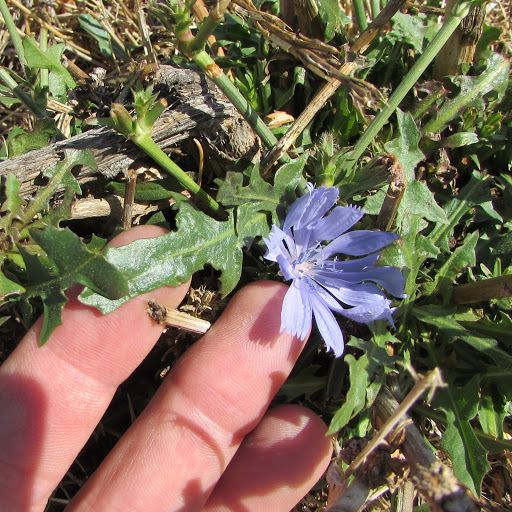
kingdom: Plantae
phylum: Tracheophyta
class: Magnoliopsida
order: Asterales
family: Asteraceae
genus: Cichorium
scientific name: Cichorium intybus
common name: Chicory
